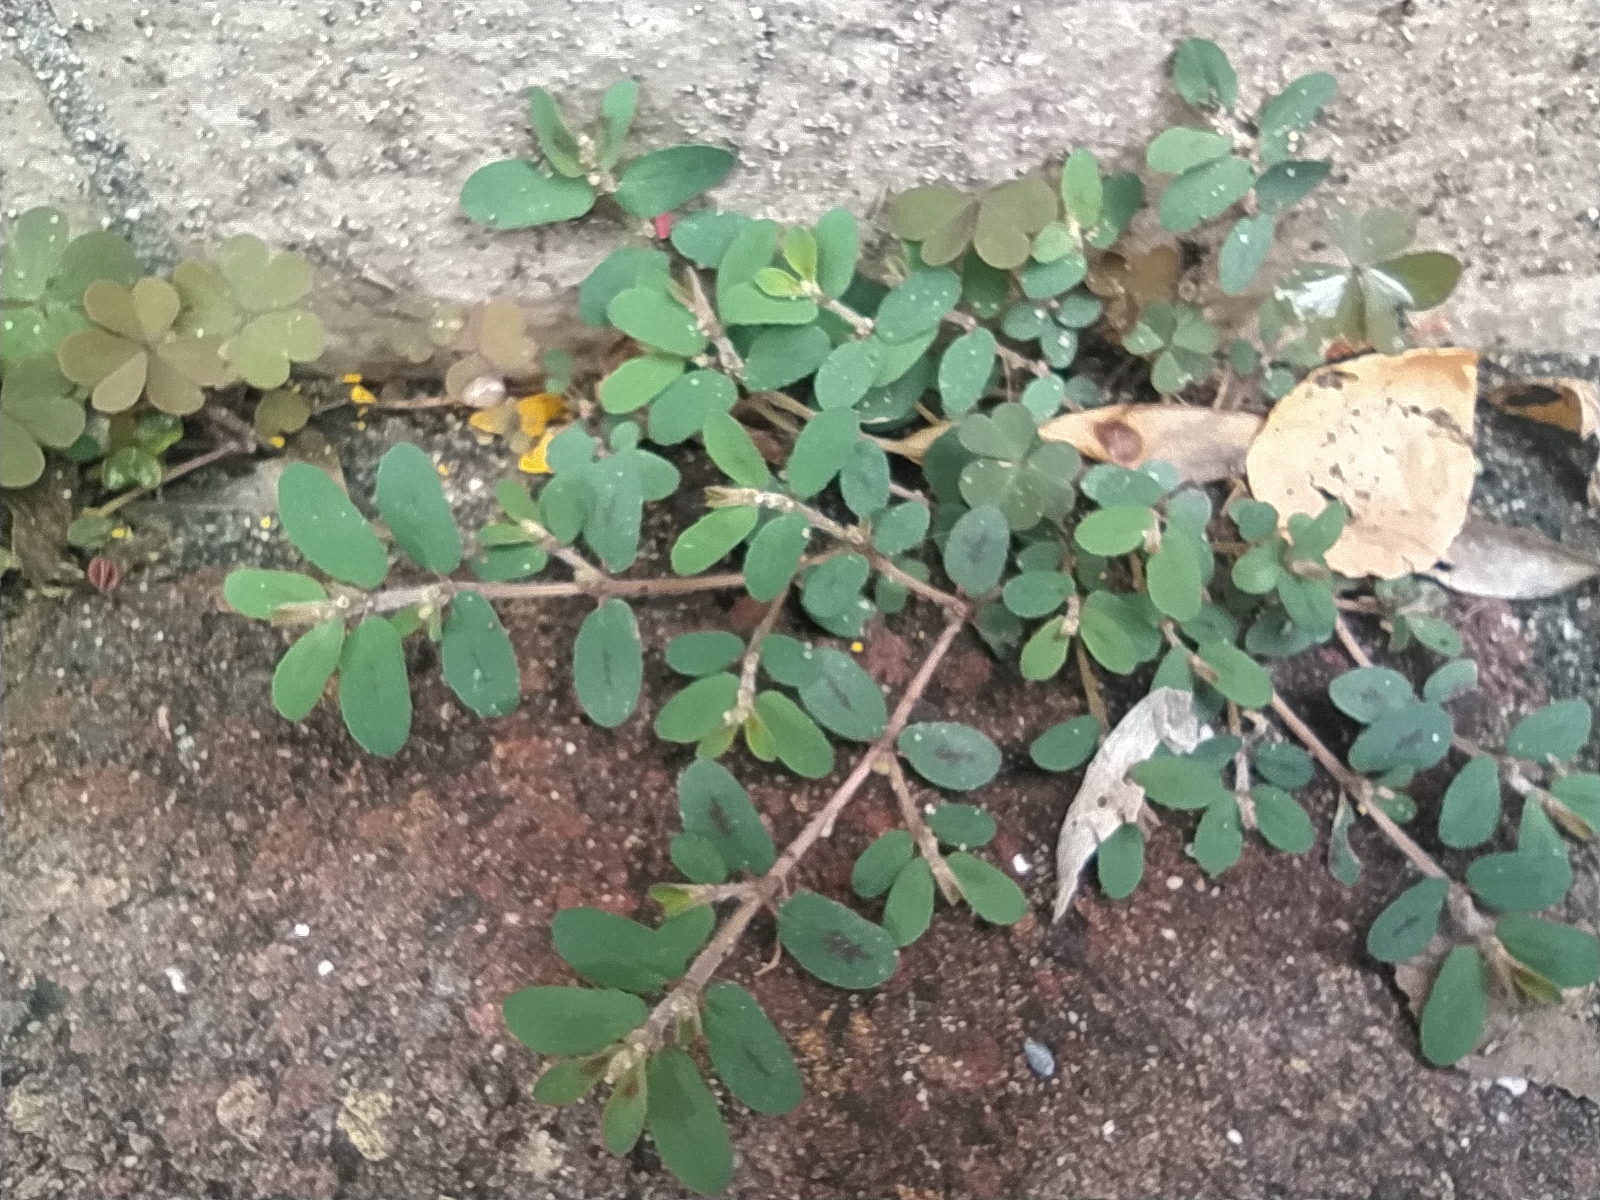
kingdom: Plantae
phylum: Tracheophyta
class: Magnoliopsida
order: Malpighiales
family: Euphorbiaceae
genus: Euphorbia
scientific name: Euphorbia maculata
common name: Spotted spurge
